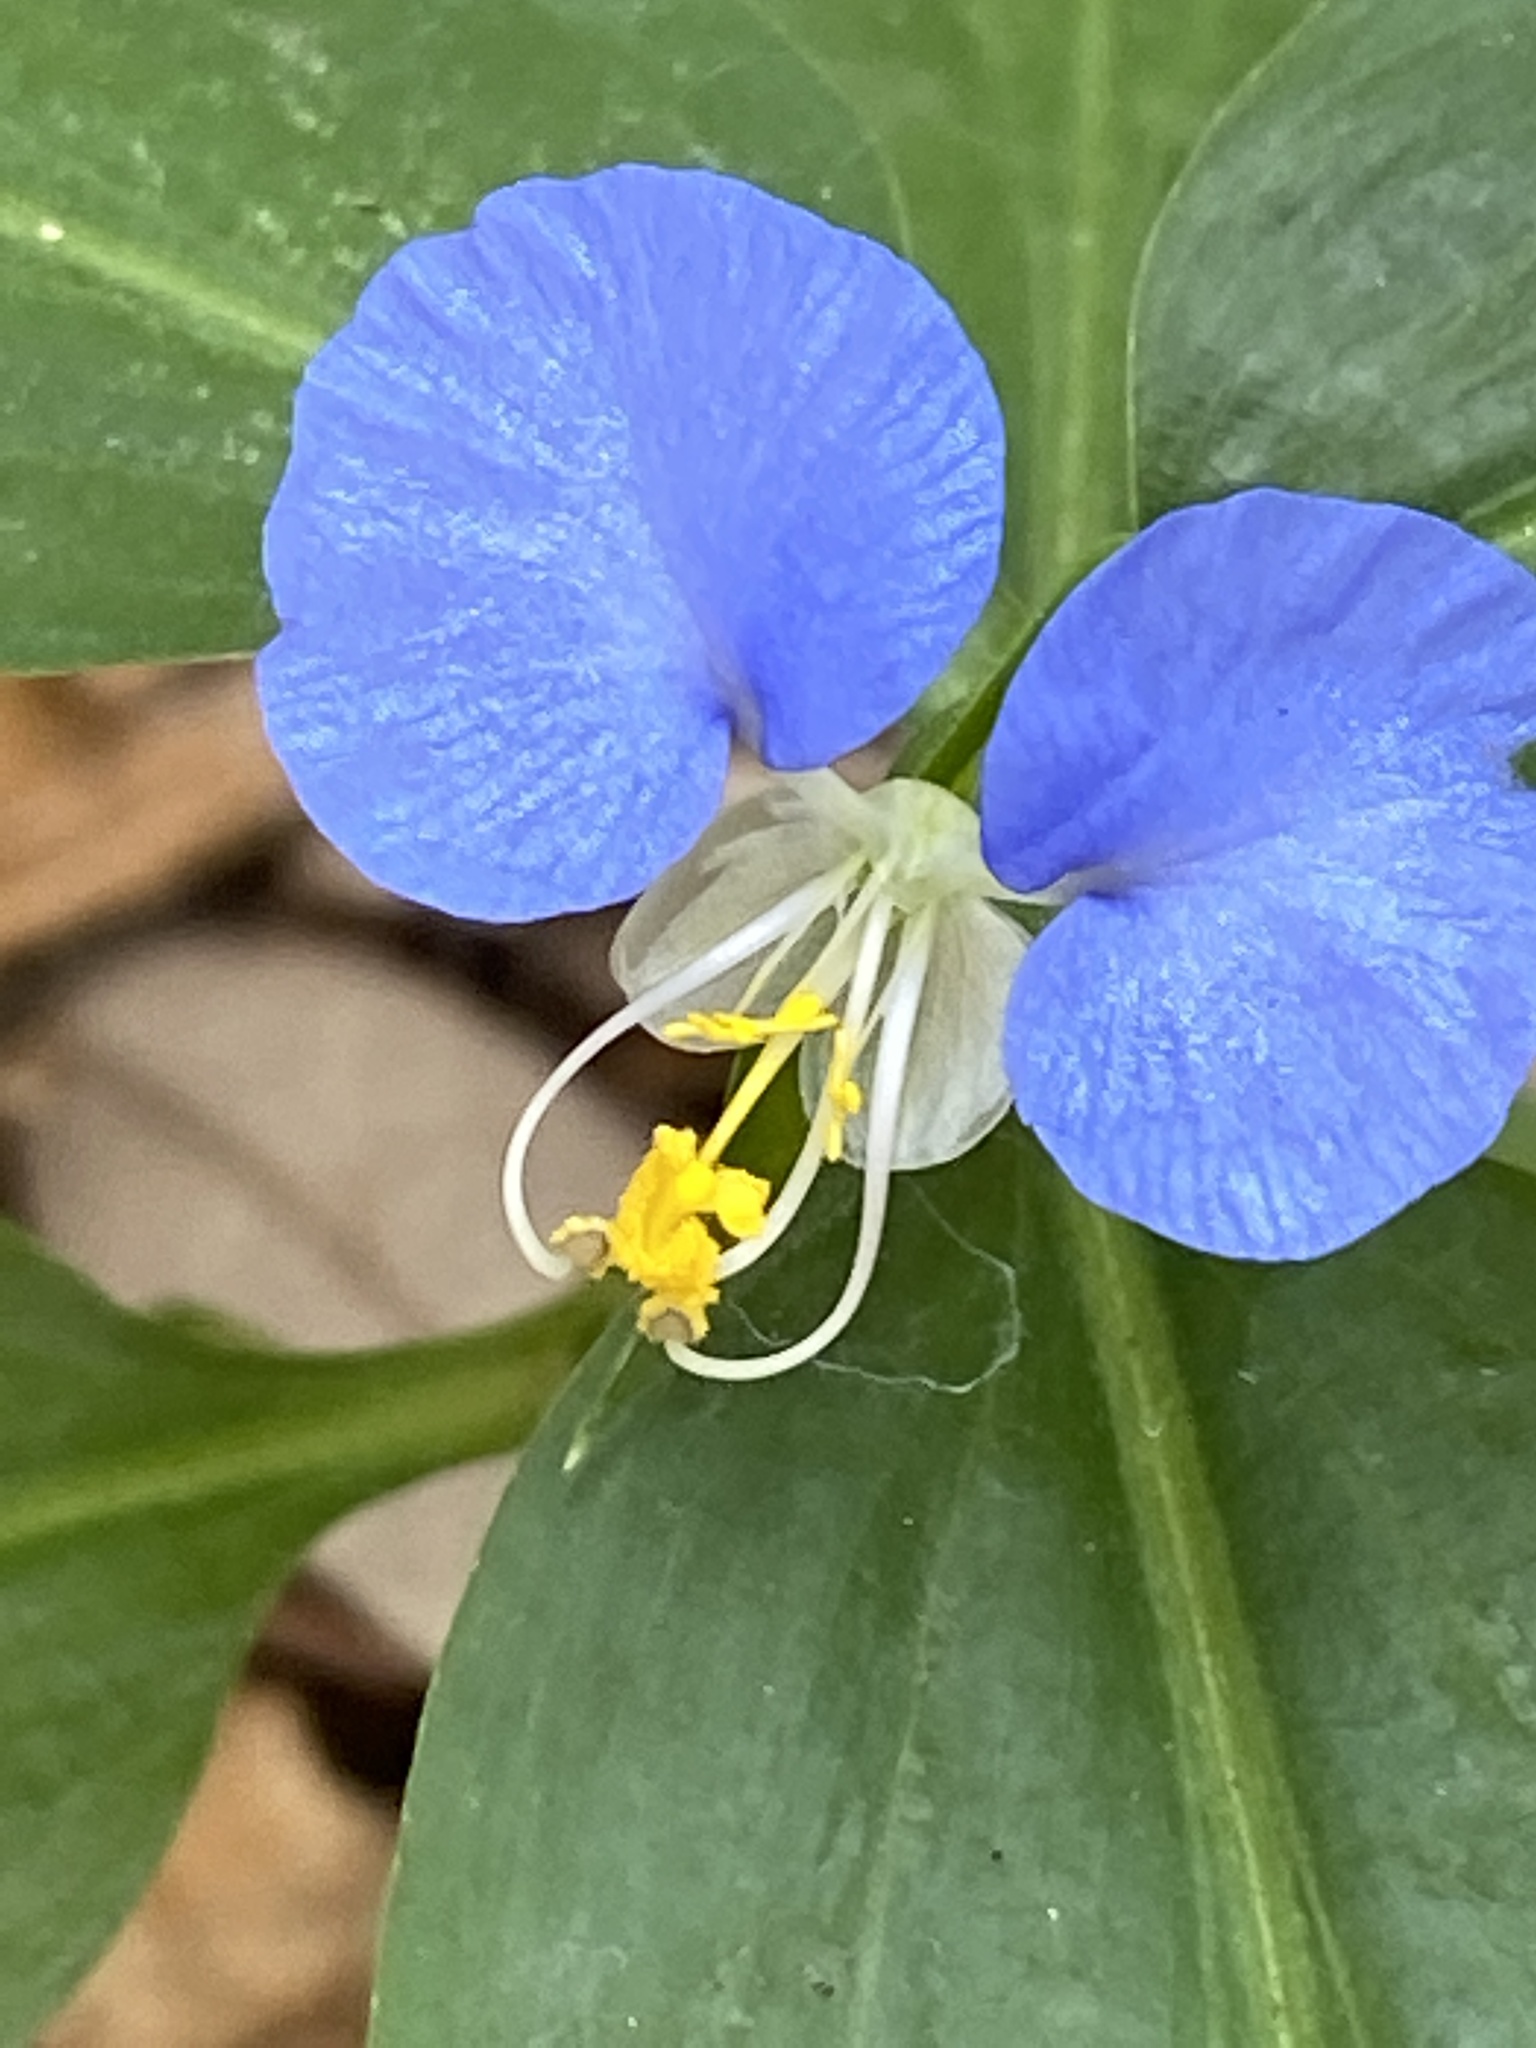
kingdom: Plantae
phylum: Tracheophyta
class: Liliopsida
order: Commelinales
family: Commelinaceae
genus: Commelina
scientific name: Commelina erecta
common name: Blousel blommetjie
